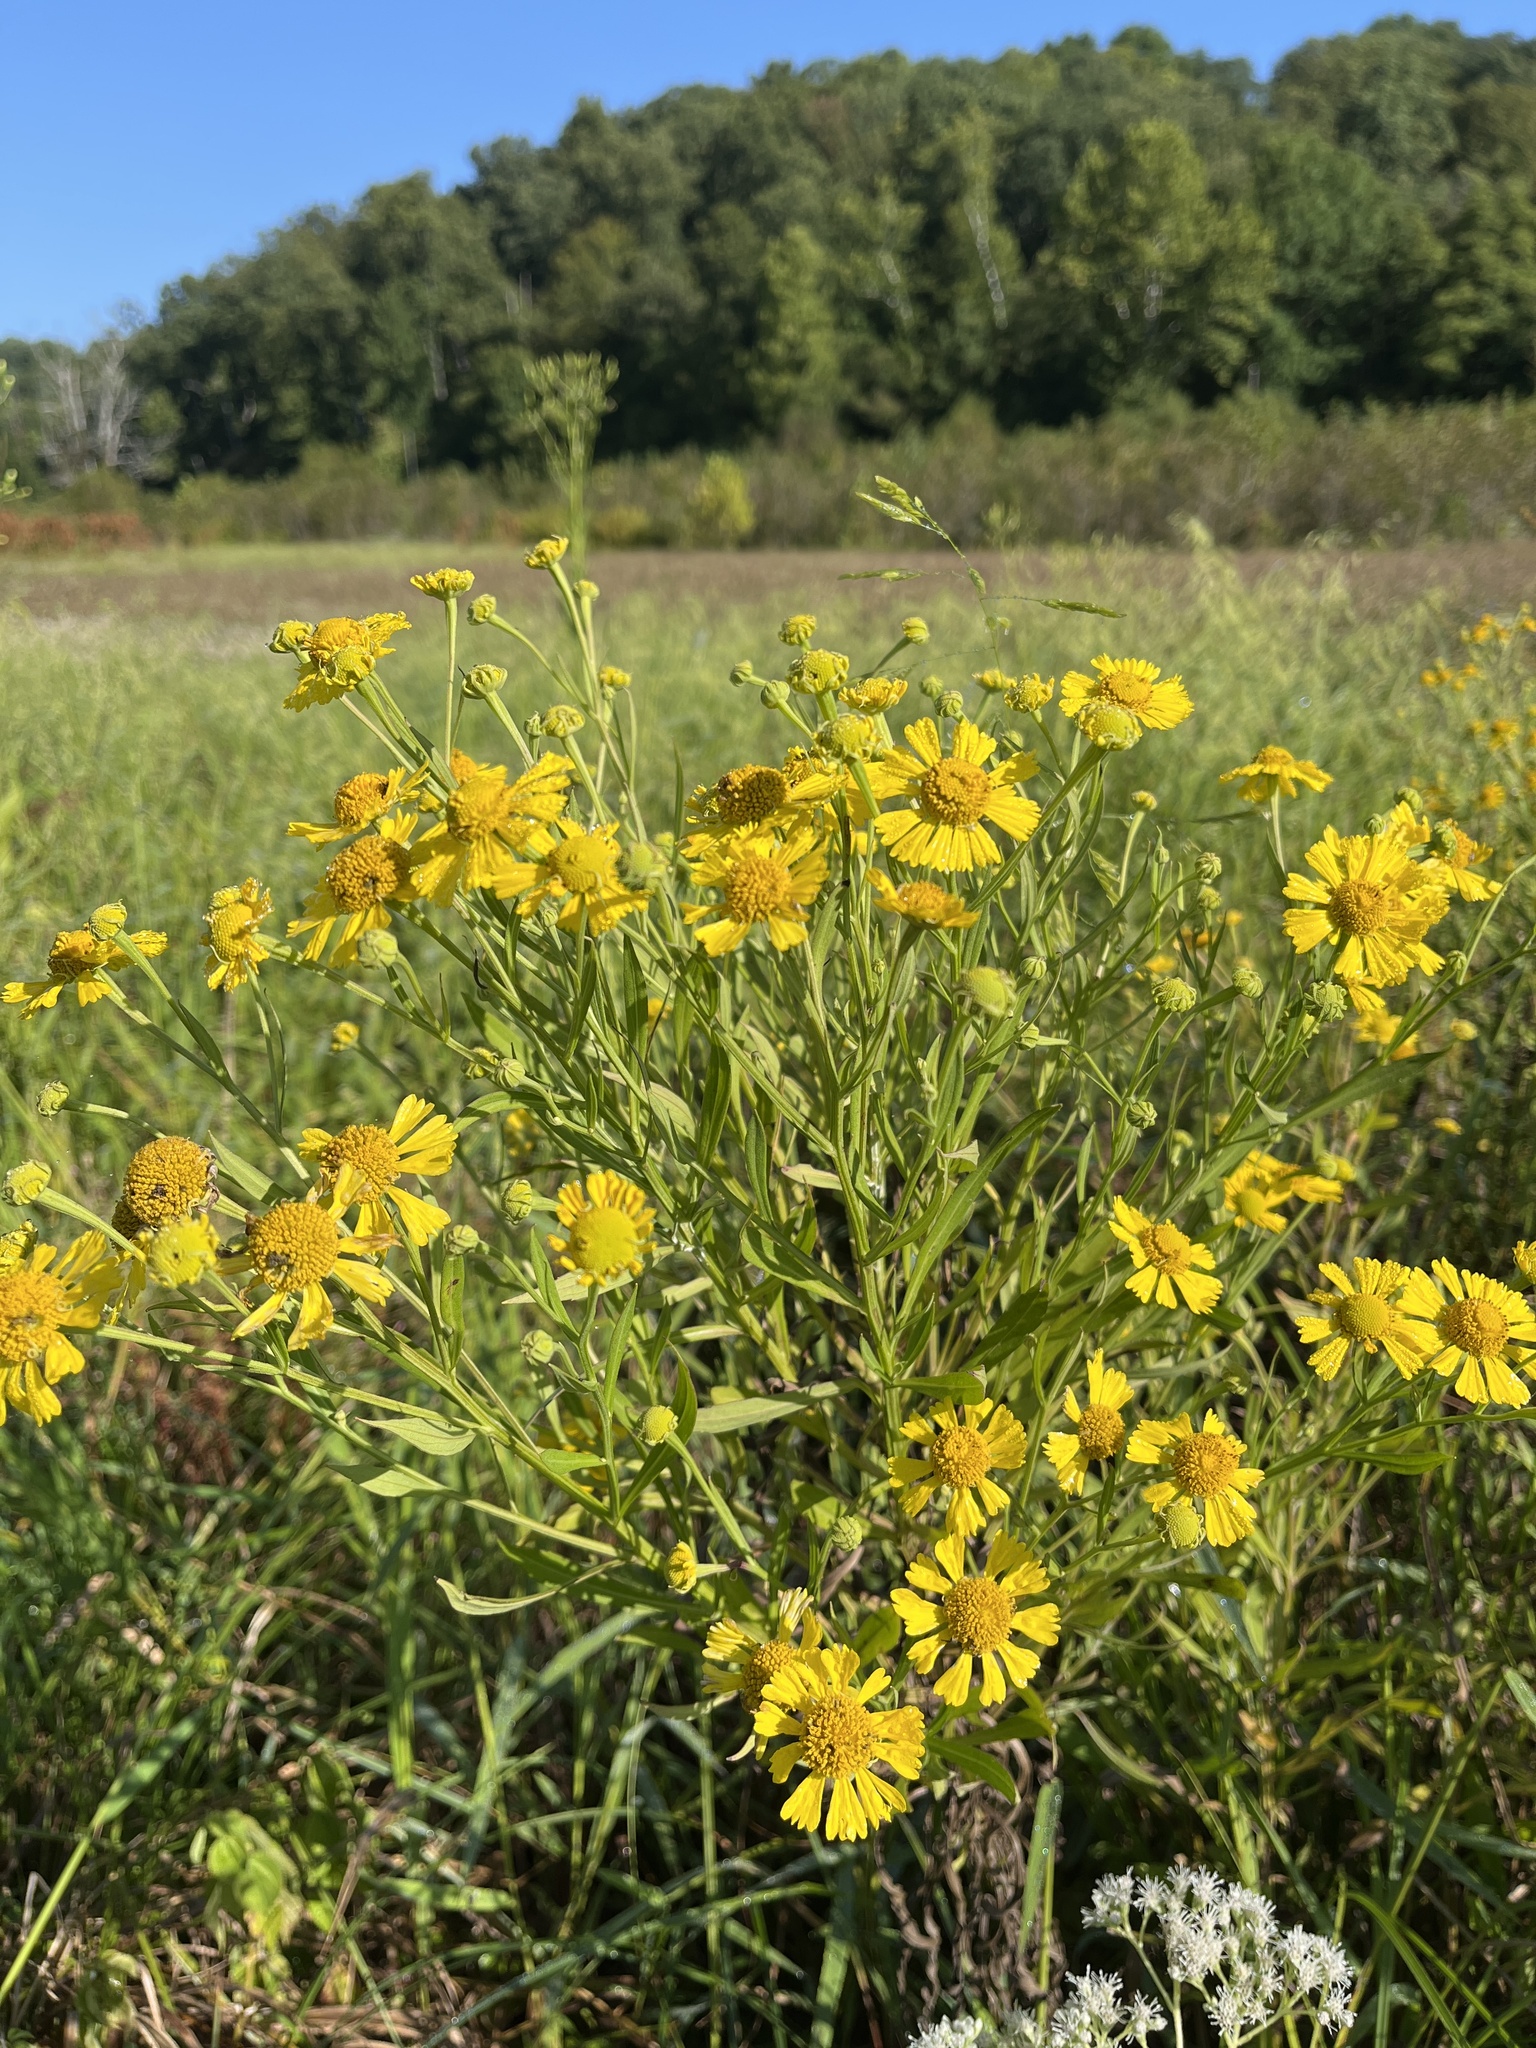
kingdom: Plantae
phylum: Tracheophyta
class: Magnoliopsida
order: Asterales
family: Asteraceae
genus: Helenium
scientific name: Helenium autumnale
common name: Sneezeweed
